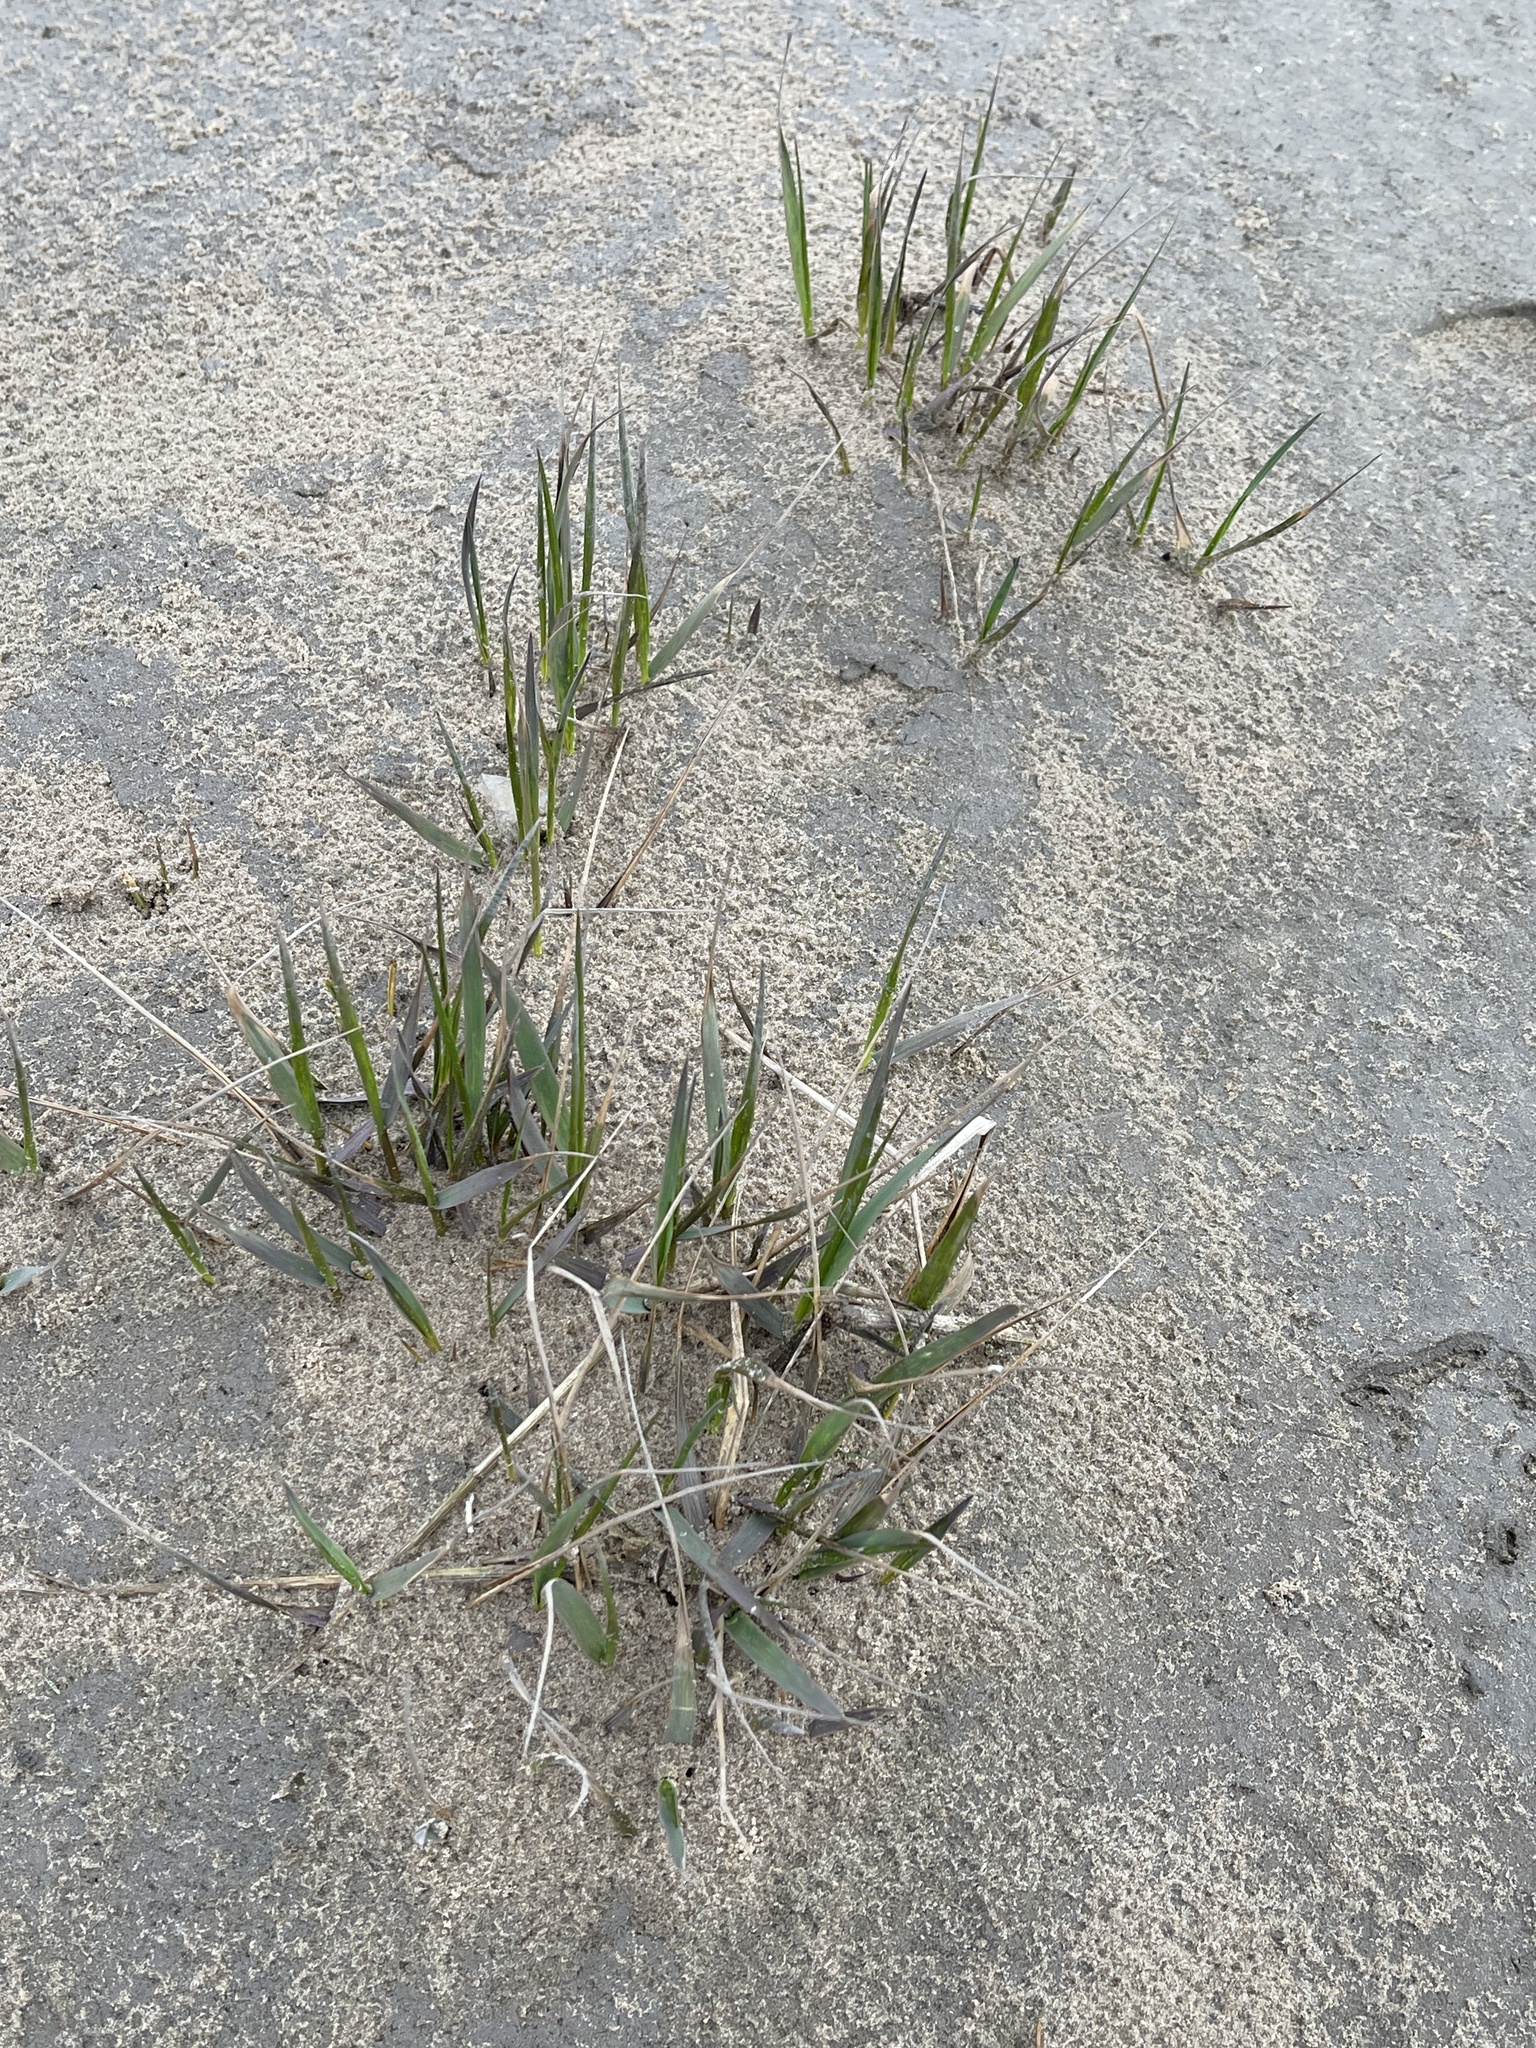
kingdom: Plantae
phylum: Tracheophyta
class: Liliopsida
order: Poales
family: Poaceae
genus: Sporobolus
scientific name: Sporobolus anglicus
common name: English cordgrass
